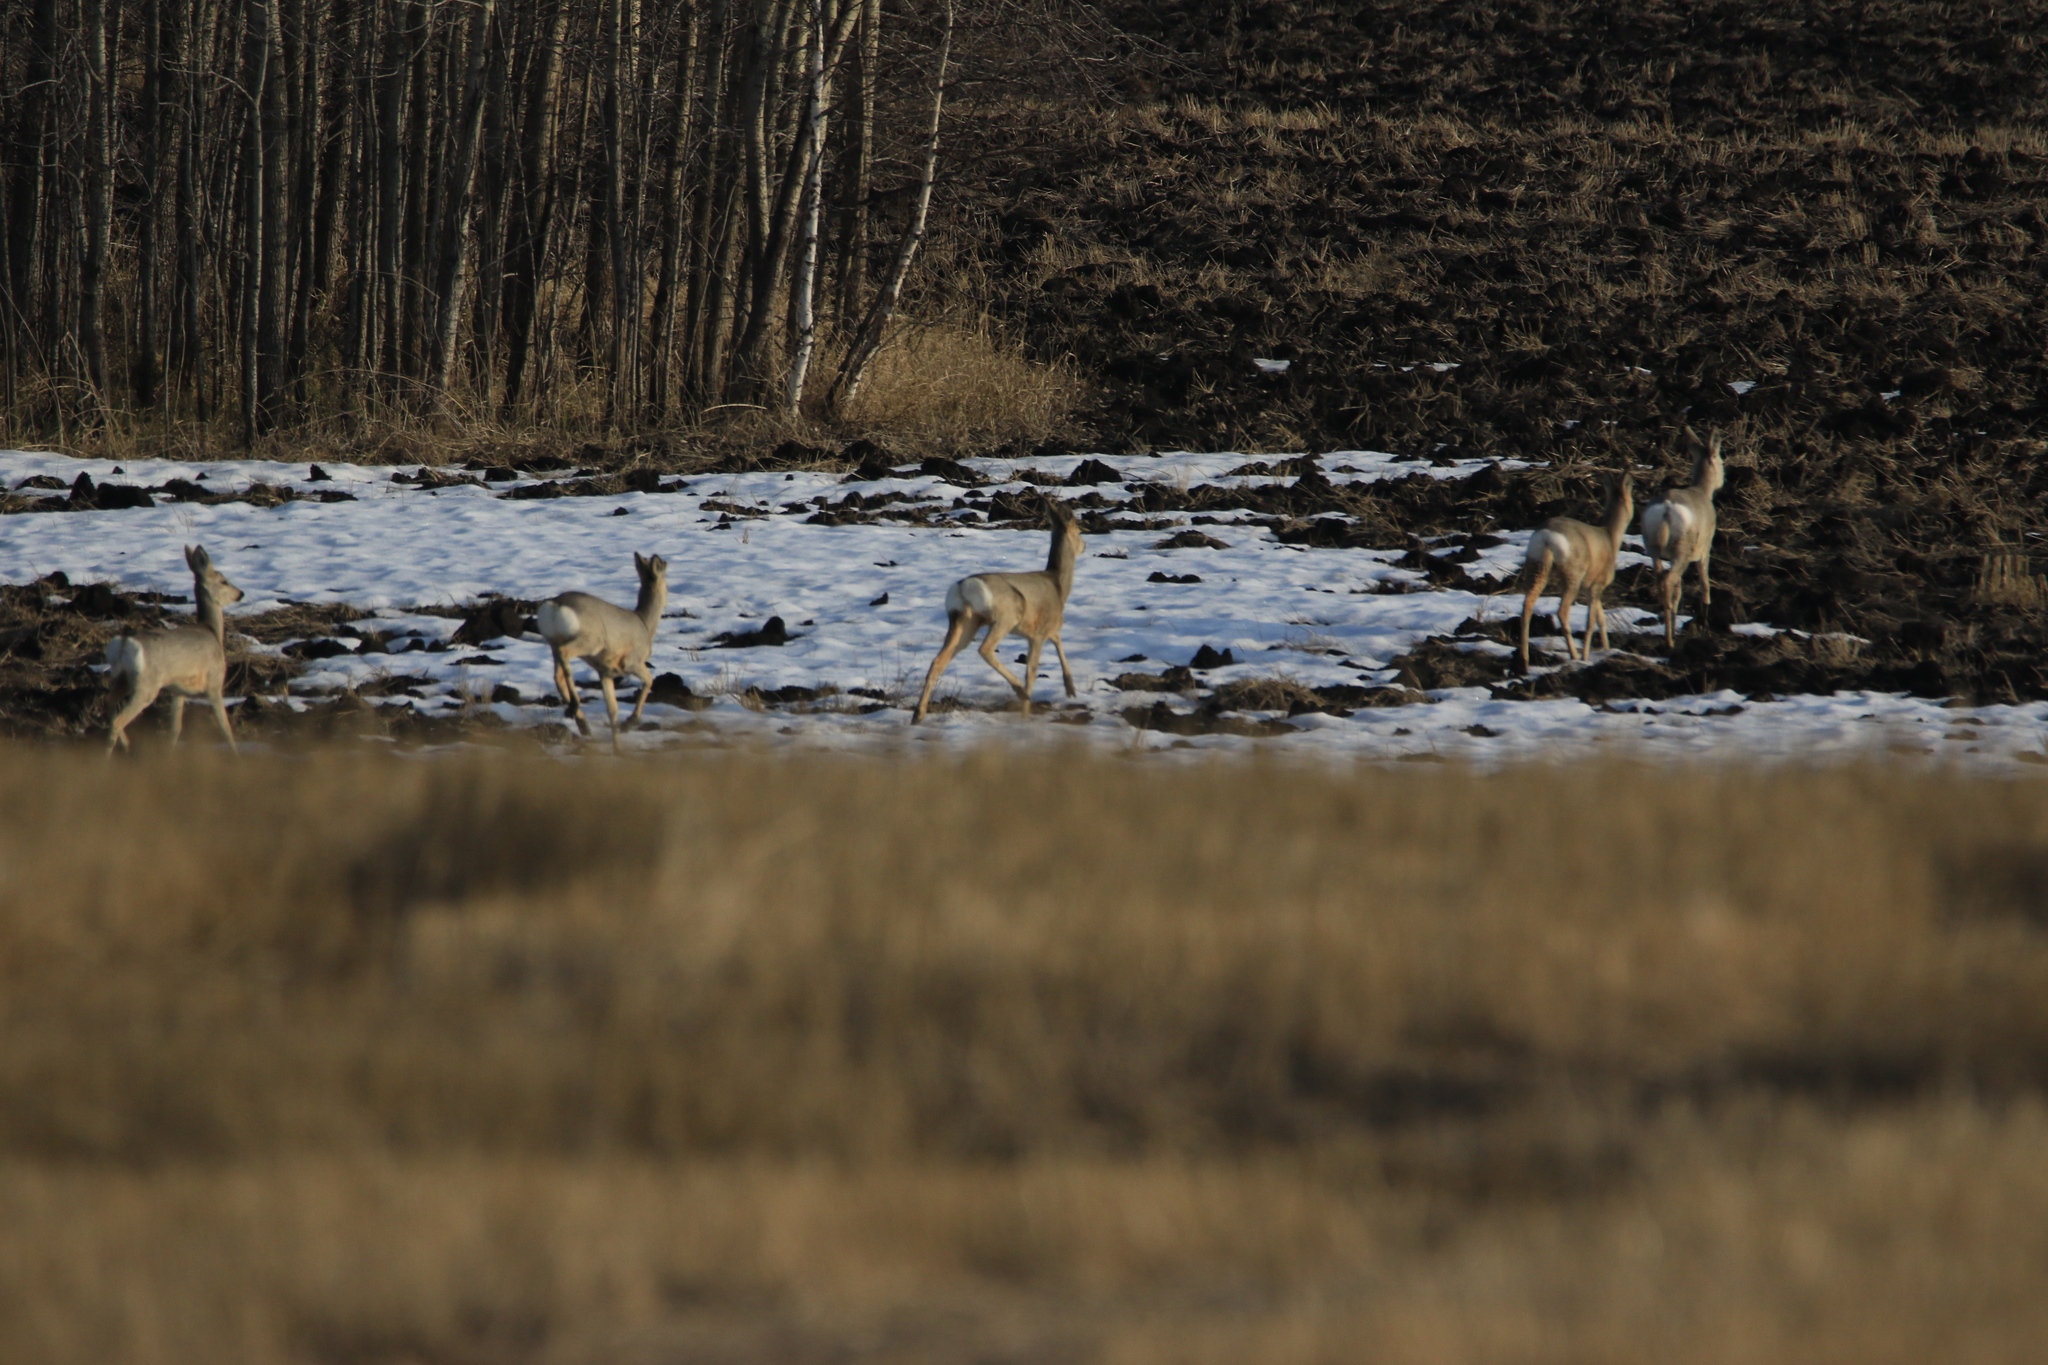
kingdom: Animalia
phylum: Chordata
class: Mammalia
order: Artiodactyla
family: Cervidae
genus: Capreolus
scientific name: Capreolus pygargus
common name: Siberian roe
